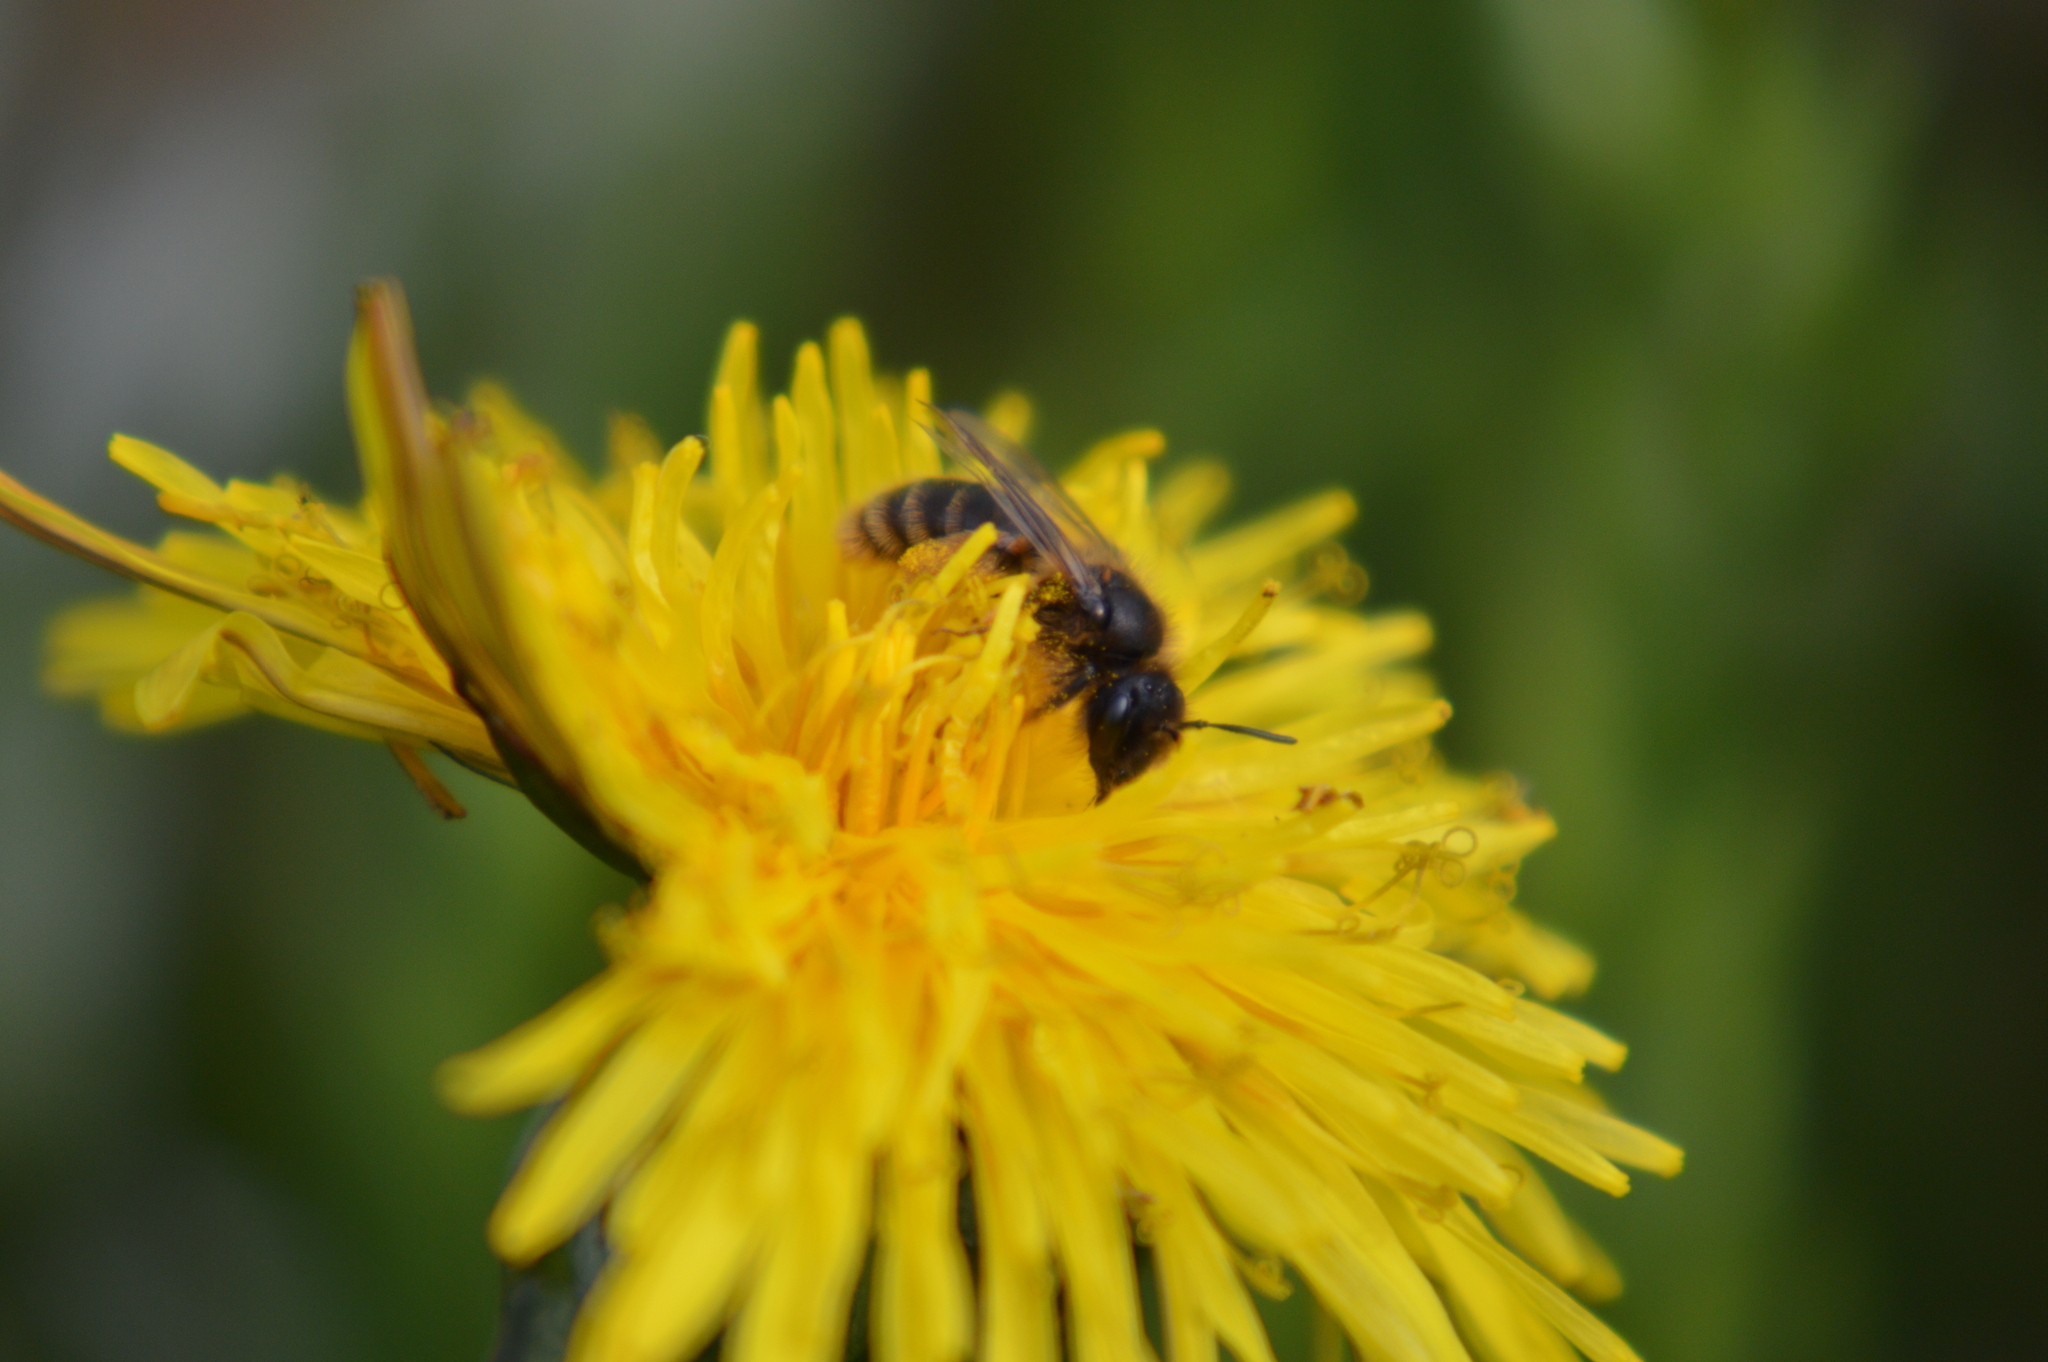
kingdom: Animalia
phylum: Arthropoda
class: Insecta
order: Hymenoptera
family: Andrenidae
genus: Andrena
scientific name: Andrena
